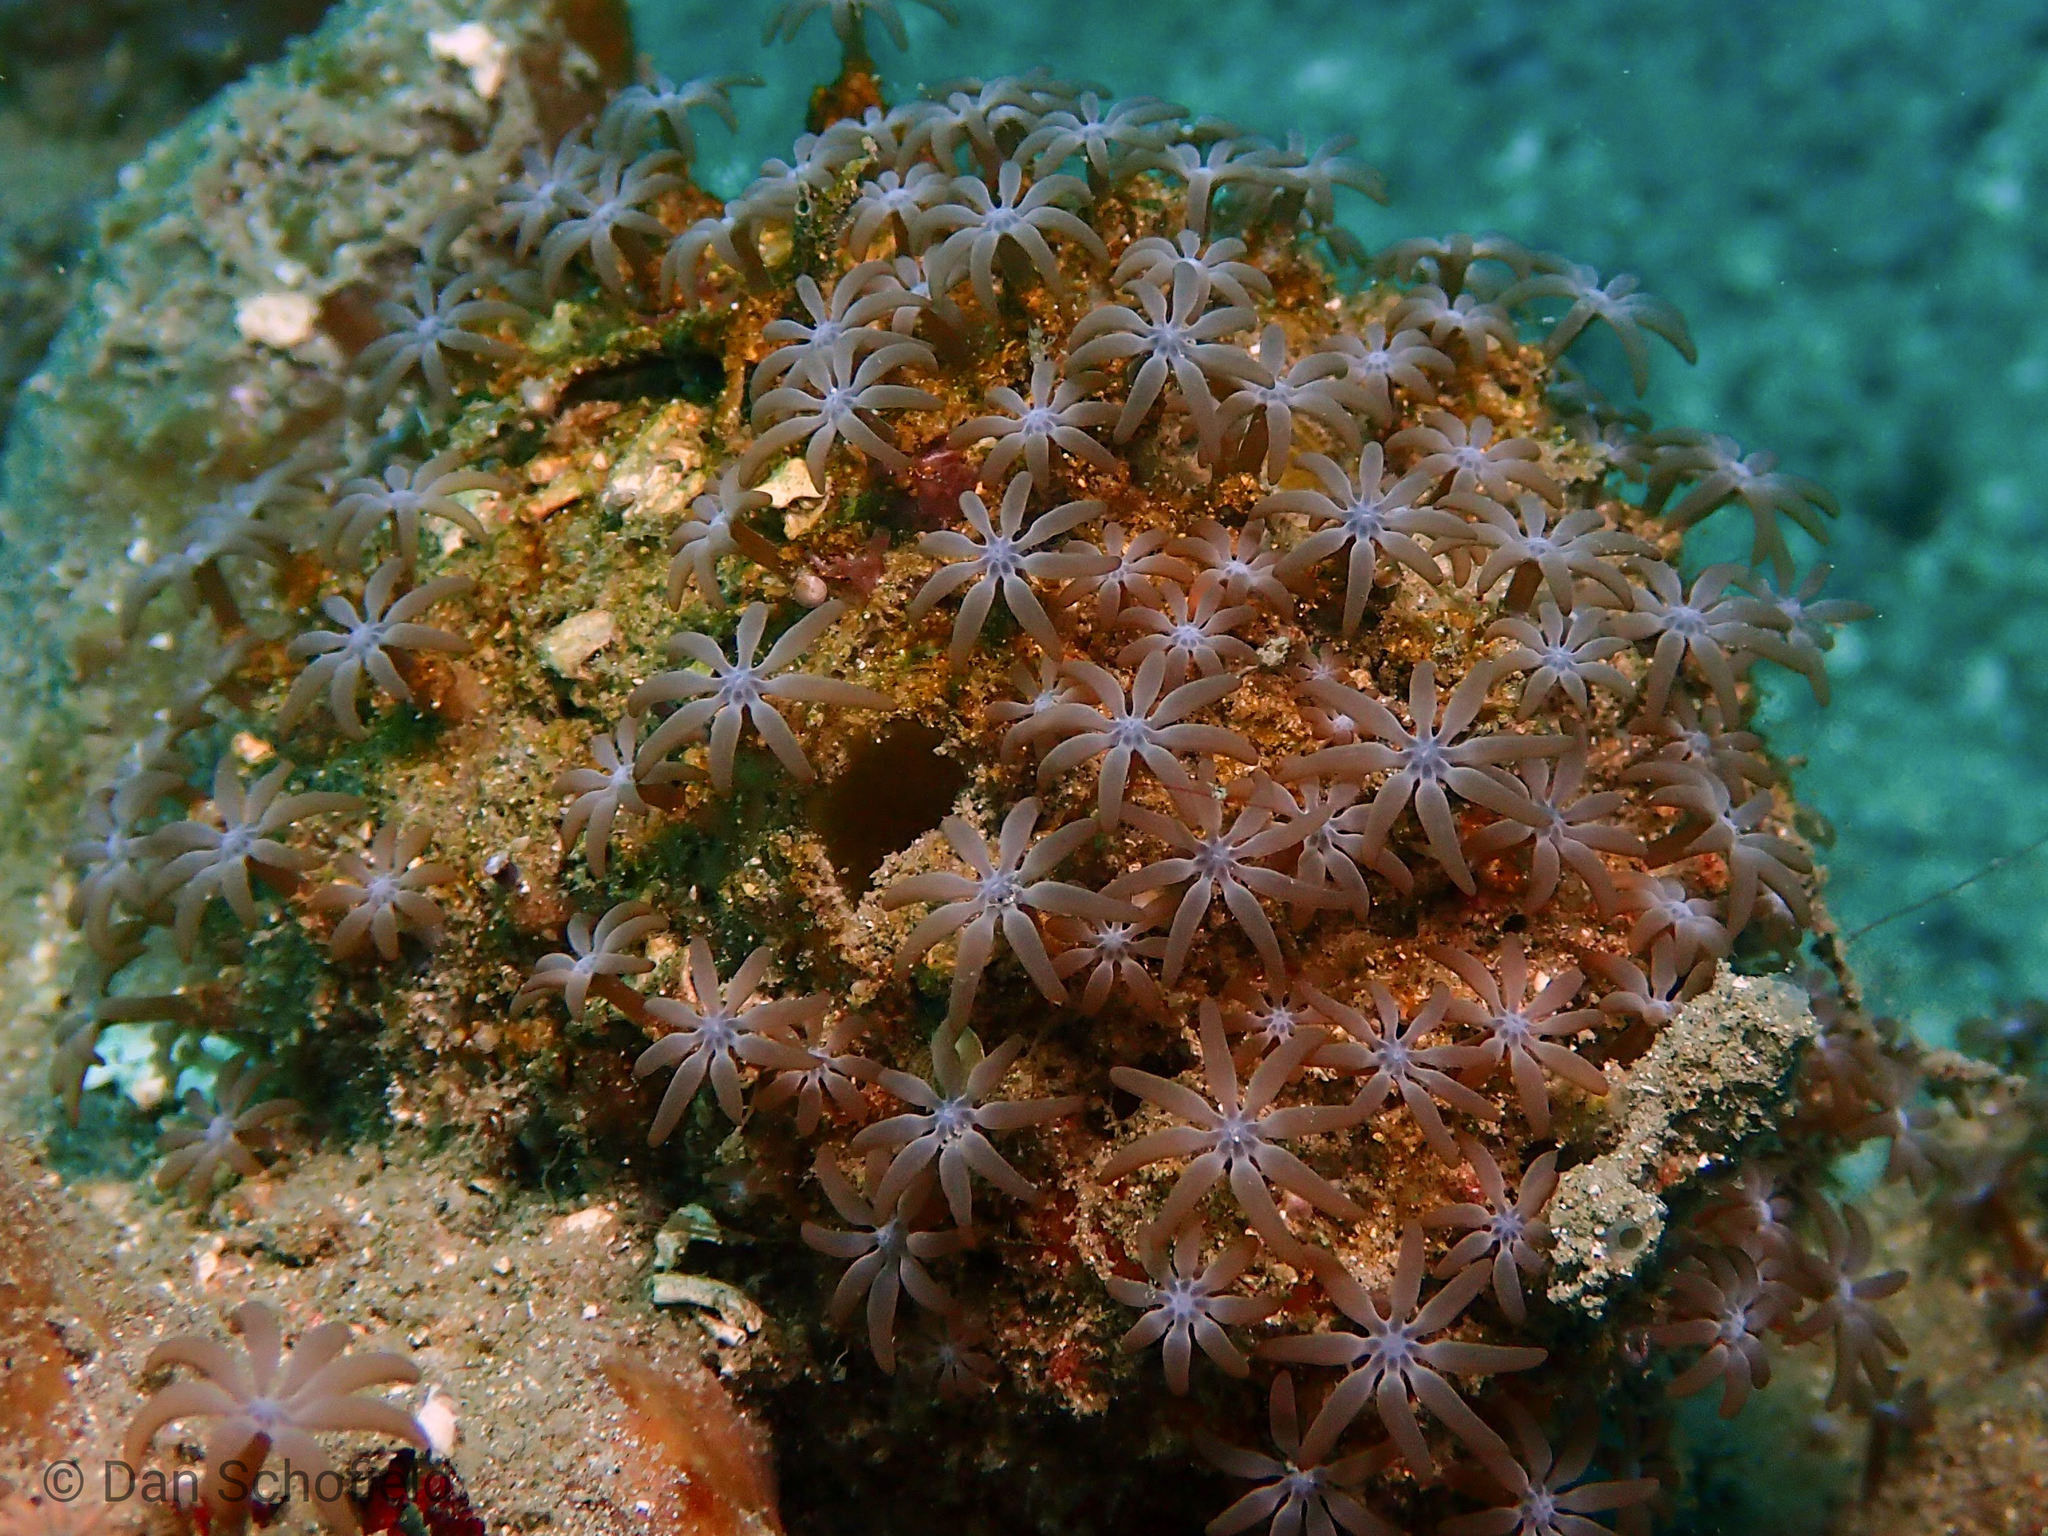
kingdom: Animalia
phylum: Cnidaria
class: Anthozoa
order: Malacalcyonacea
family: Acrossotidae
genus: Acrossota
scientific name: Acrossota amboinensis
